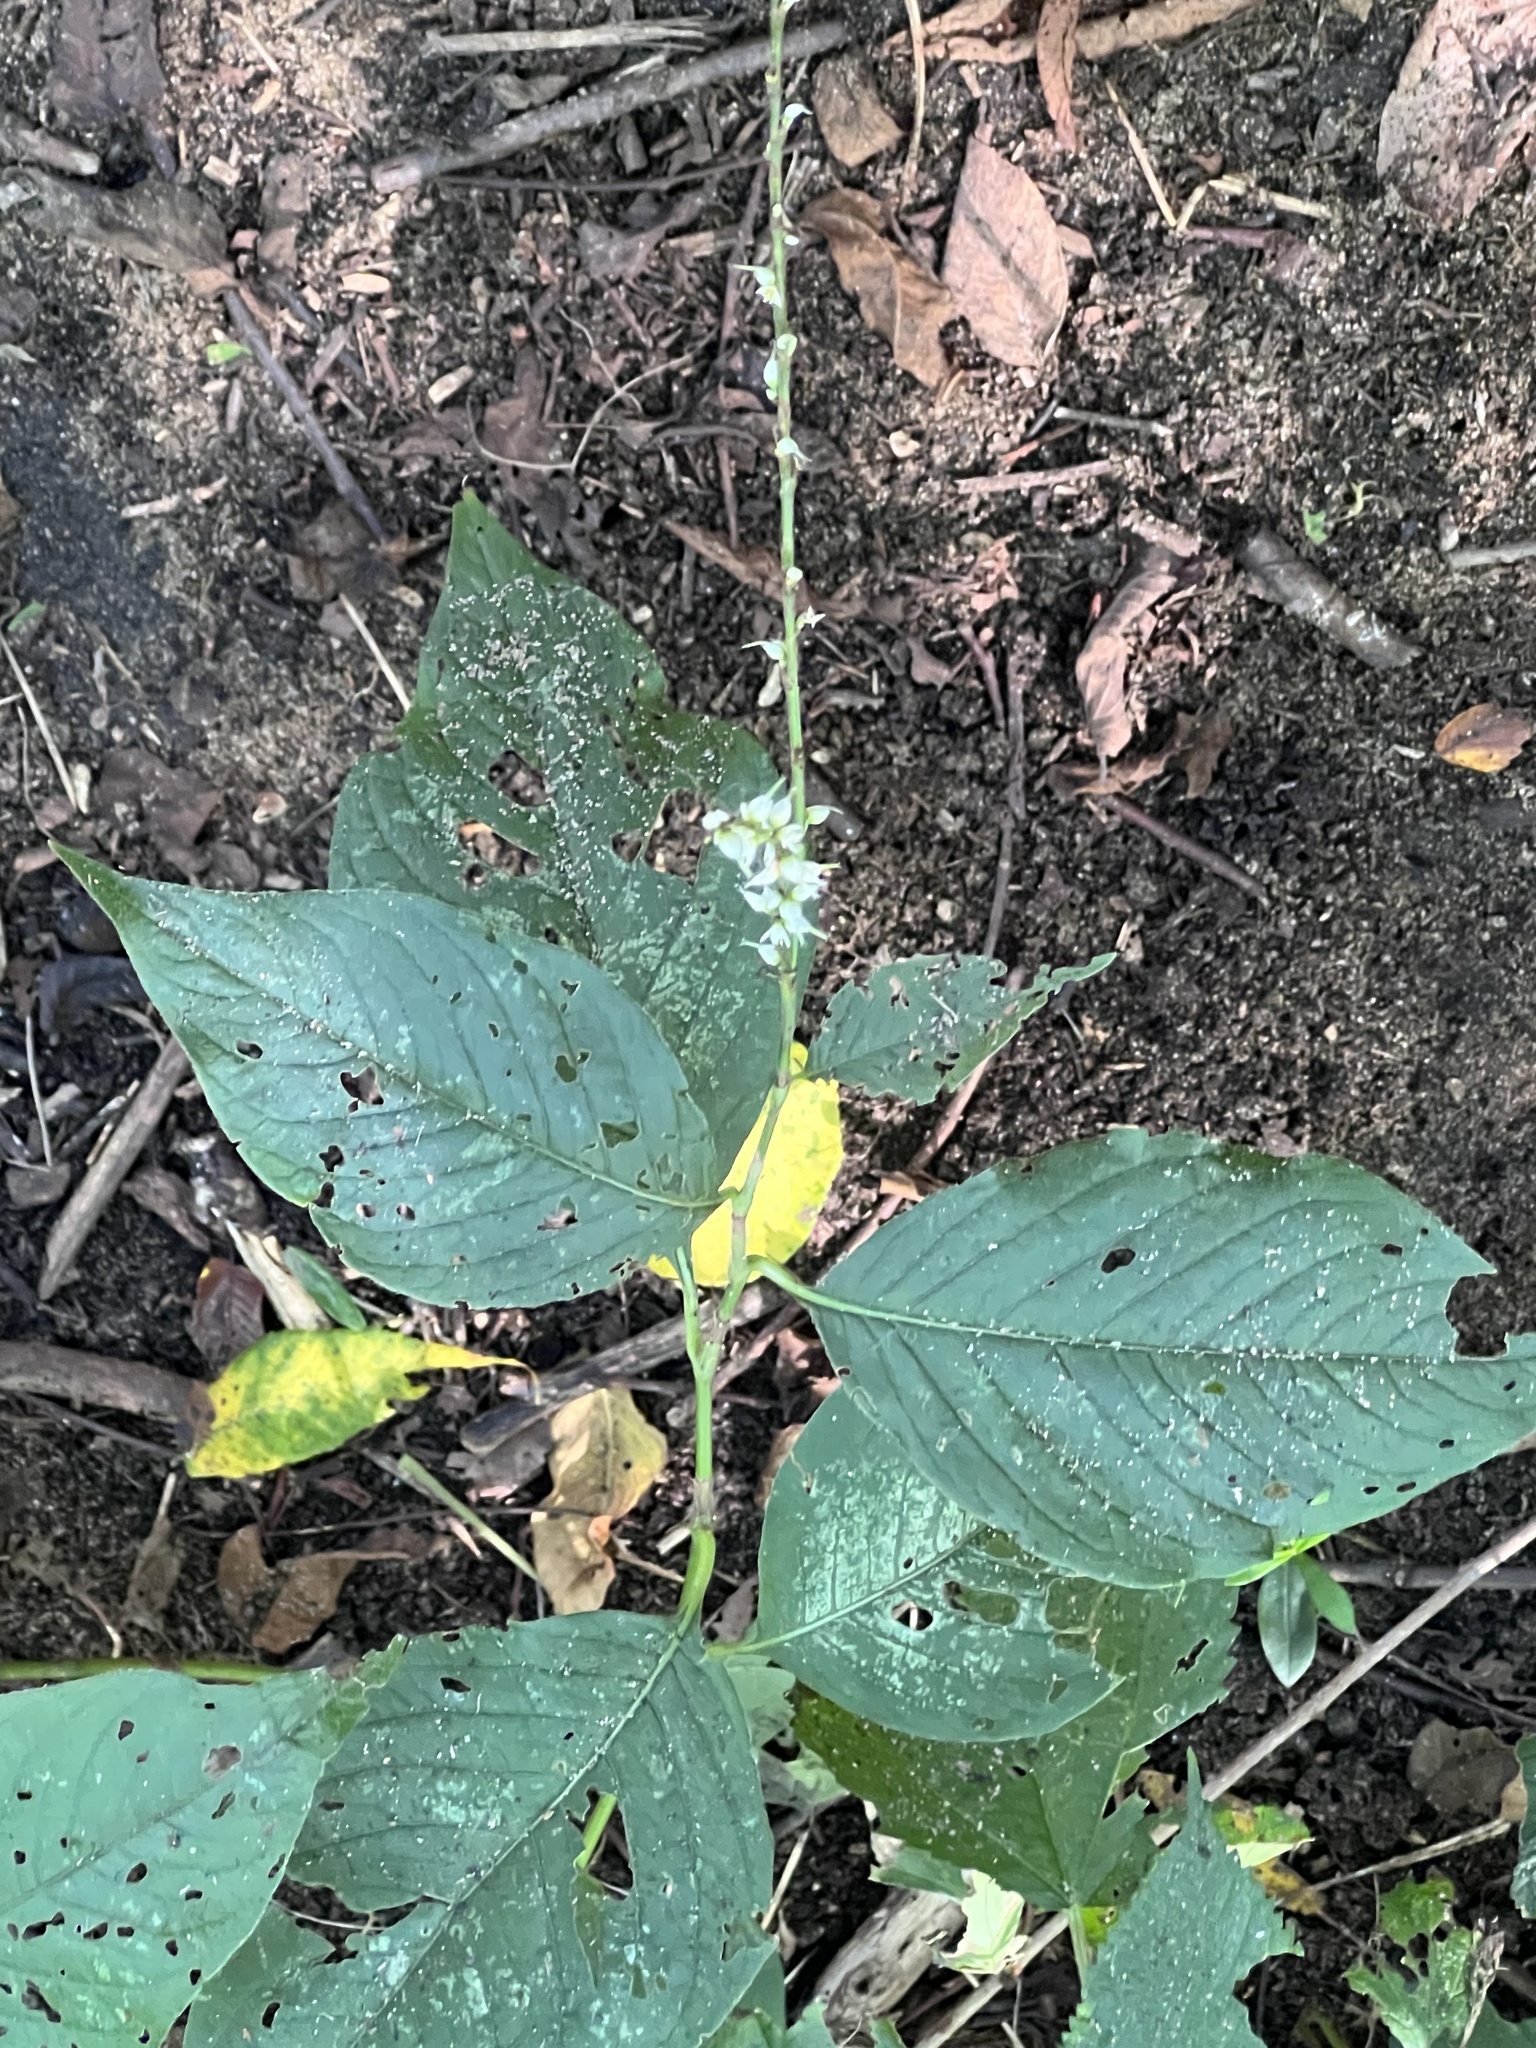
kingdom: Plantae
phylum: Tracheophyta
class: Magnoliopsida
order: Caryophyllales
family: Polygonaceae
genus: Persicaria
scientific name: Persicaria virginiana
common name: Jumpseed
